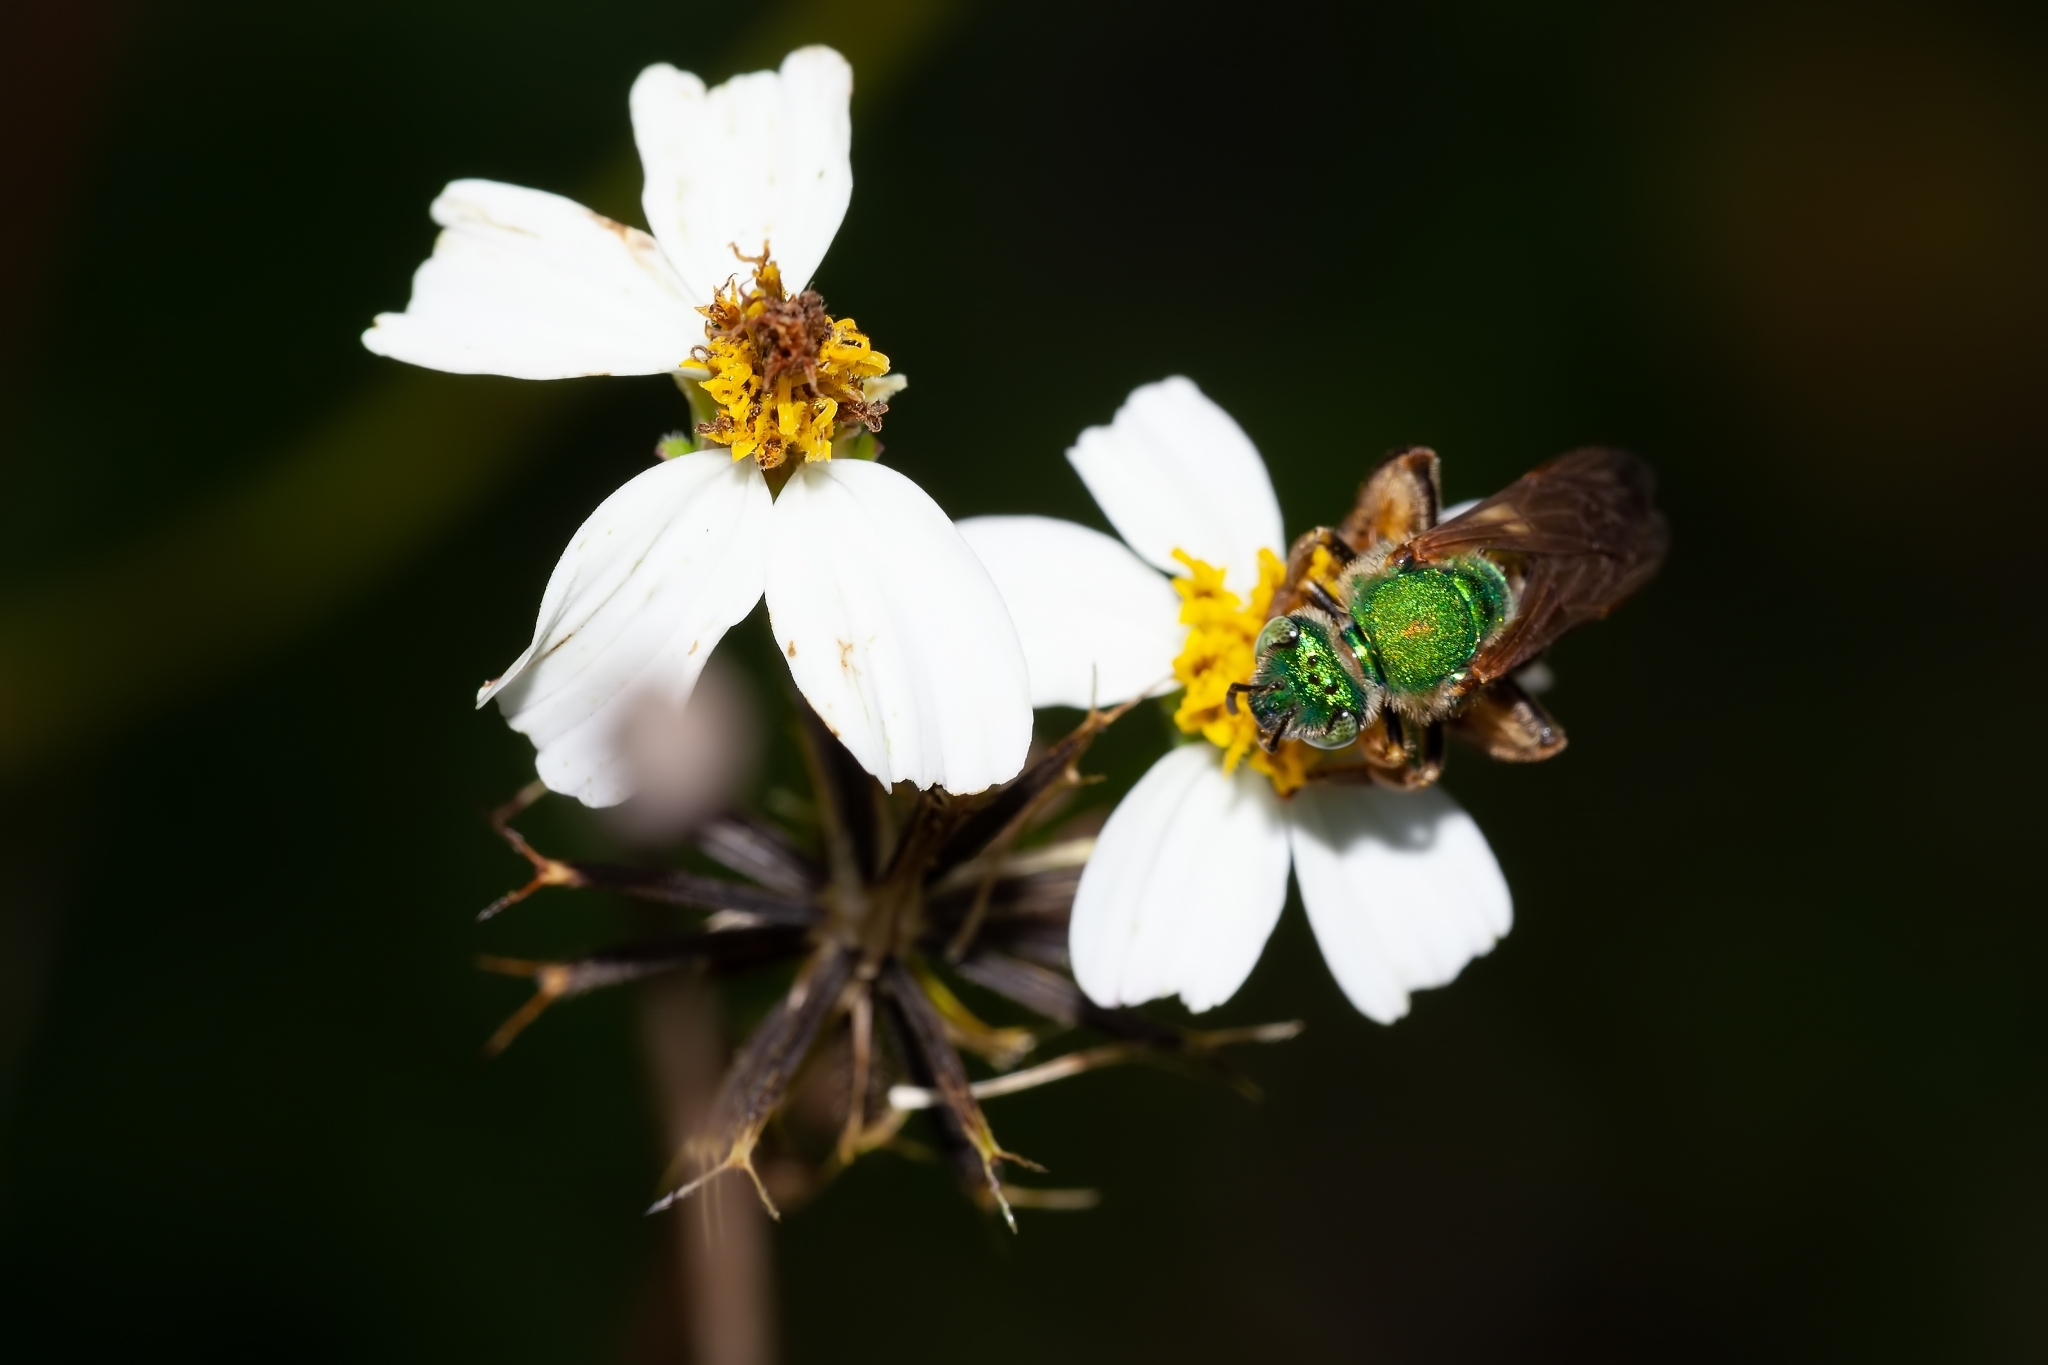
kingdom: Animalia
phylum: Arthropoda
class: Insecta
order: Hymenoptera
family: Halictidae
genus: Agapostemon
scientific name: Agapostemon splendens
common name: Brown-winged striped sweat bee
